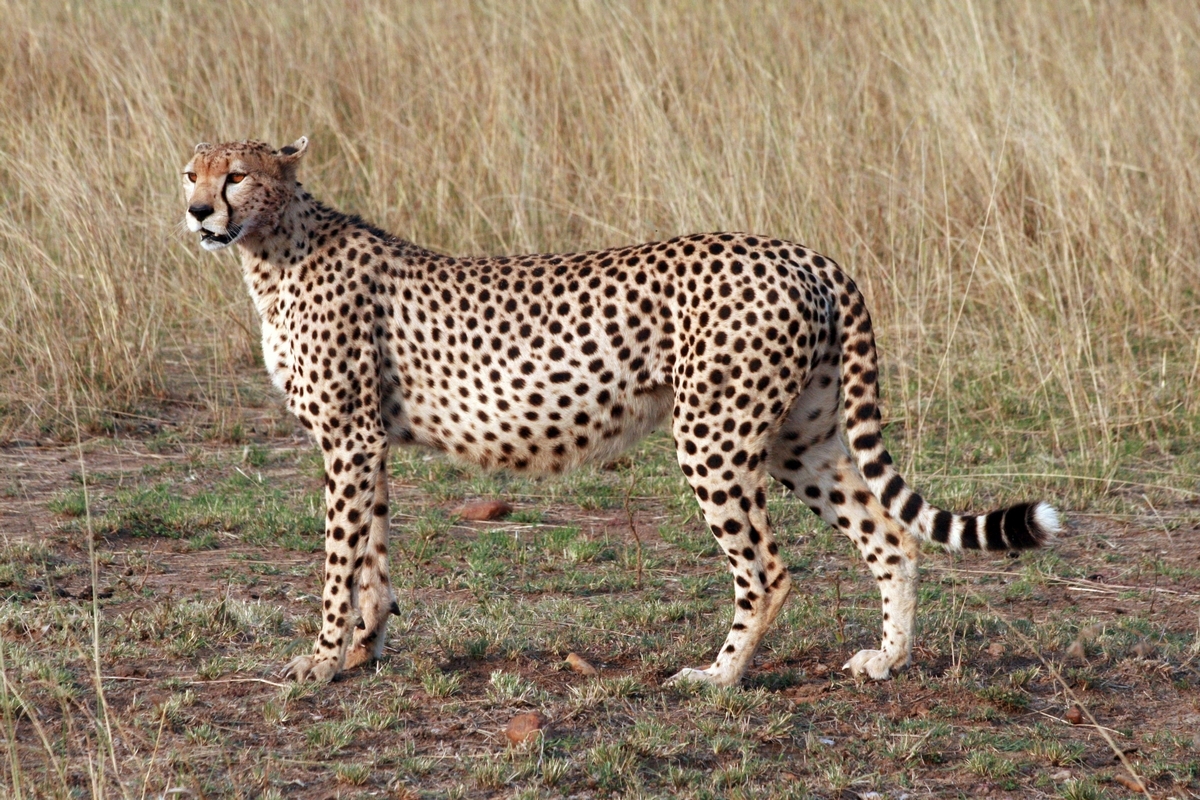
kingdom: Animalia
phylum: Chordata
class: Mammalia
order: Carnivora
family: Felidae
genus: Acinonyx
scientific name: Acinonyx jubatus
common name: Cheetah
